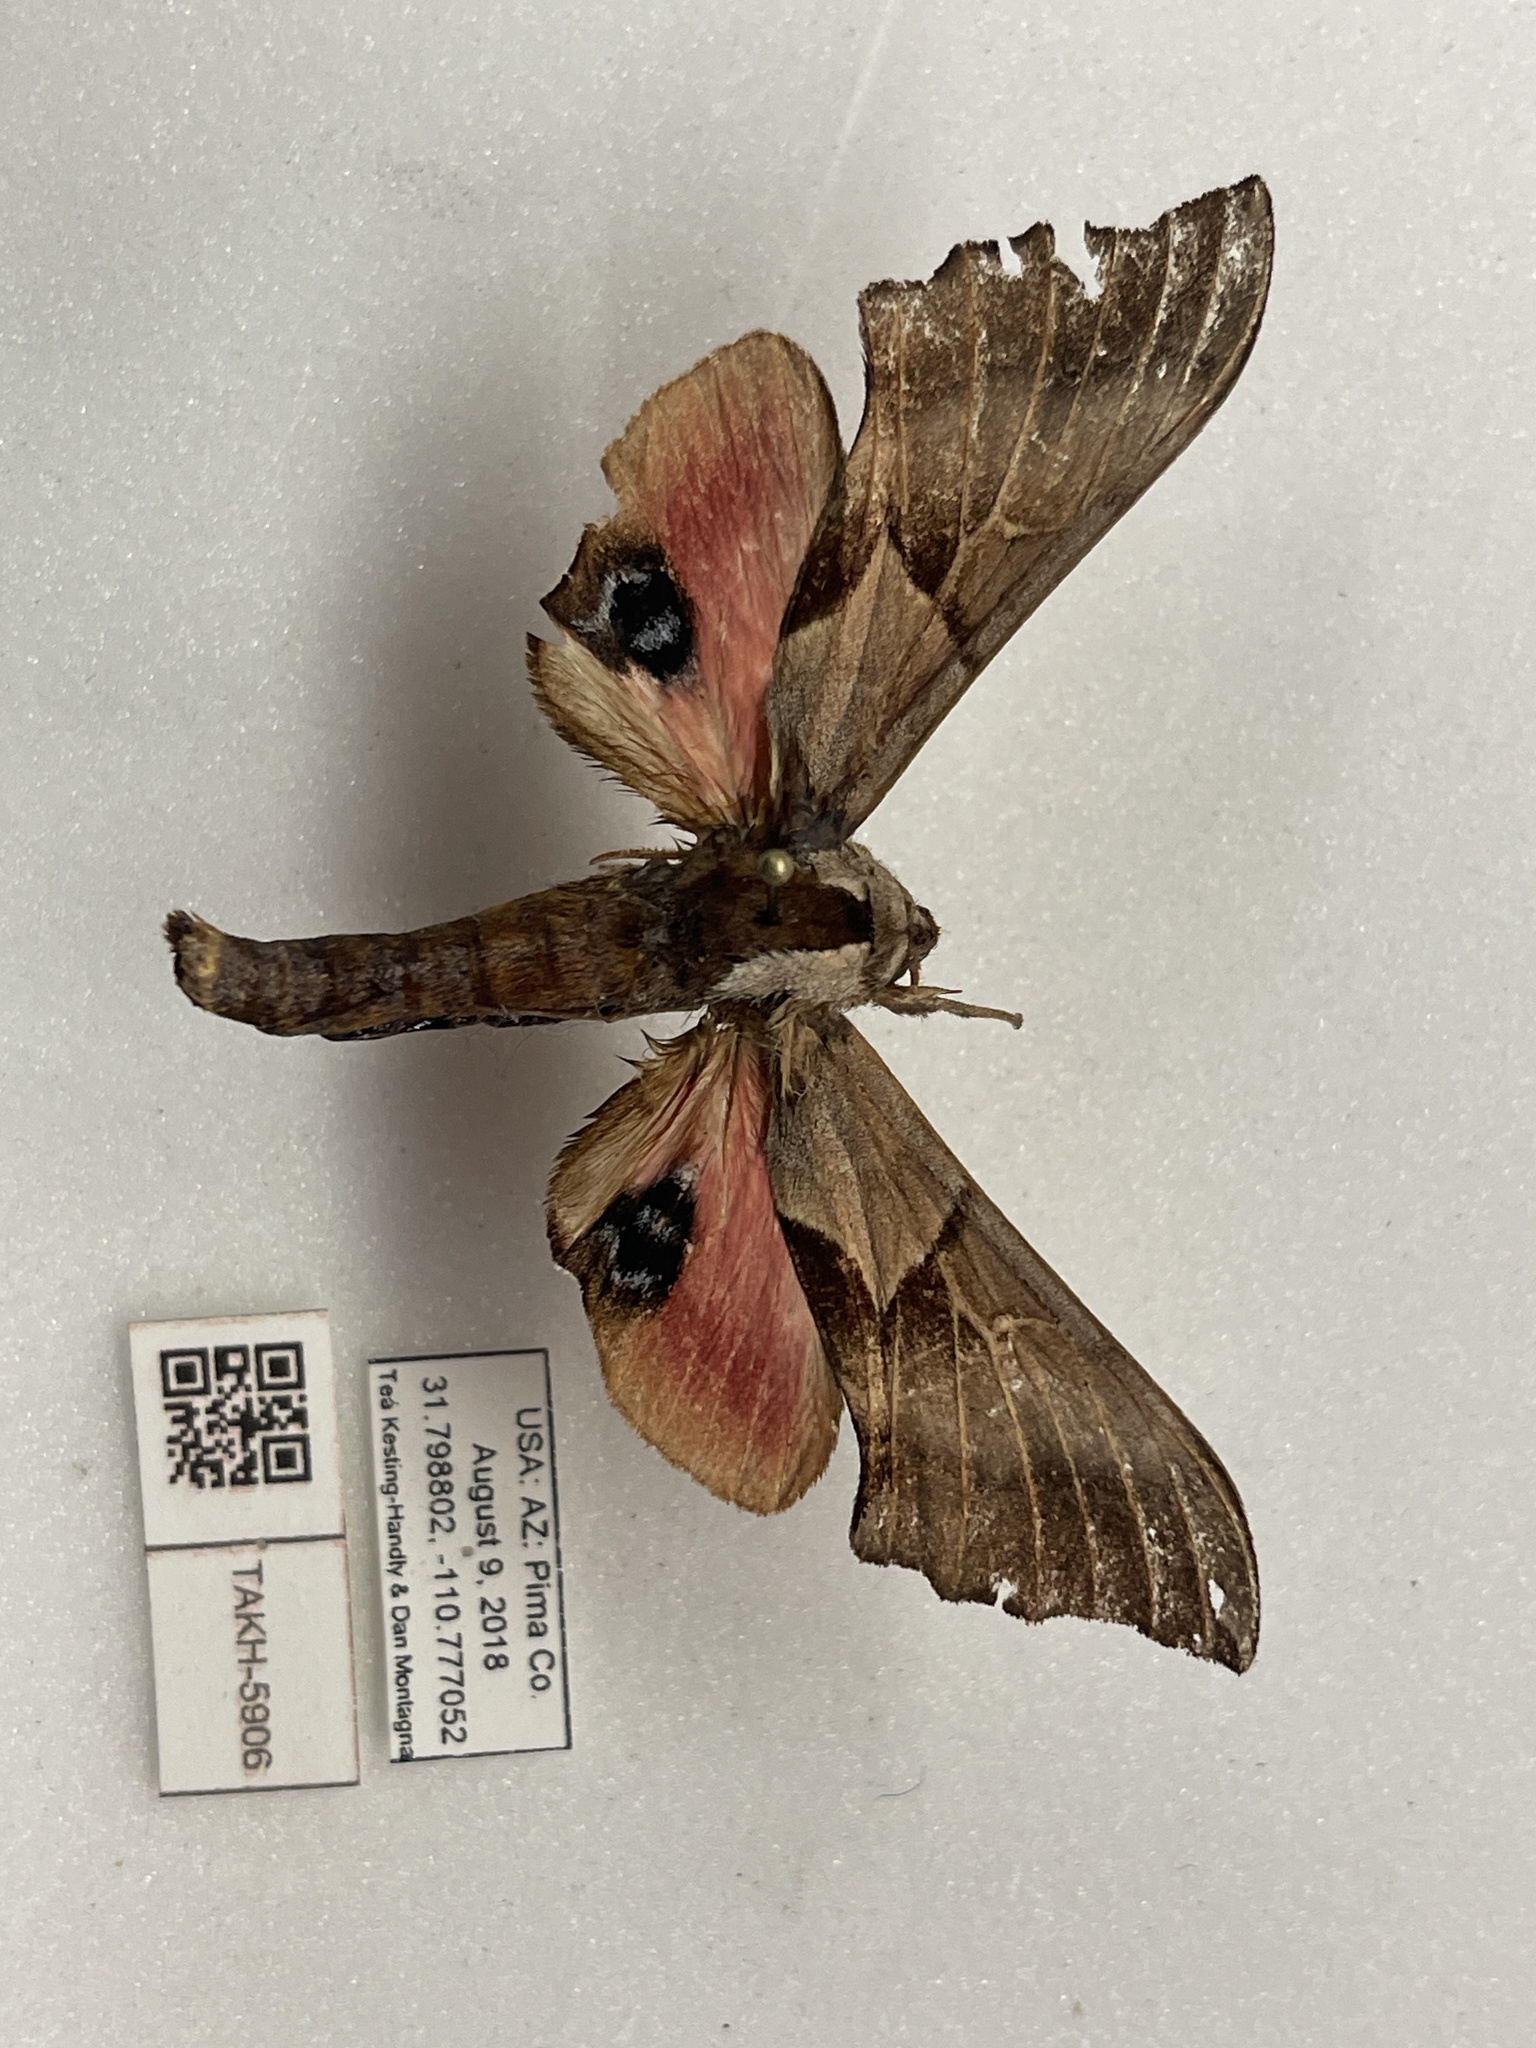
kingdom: Animalia
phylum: Arthropoda
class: Insecta
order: Lepidoptera
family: Sphingidae
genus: Smerinthus
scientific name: Smerinthus cerisyi
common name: Cerisy's sphinx moth
